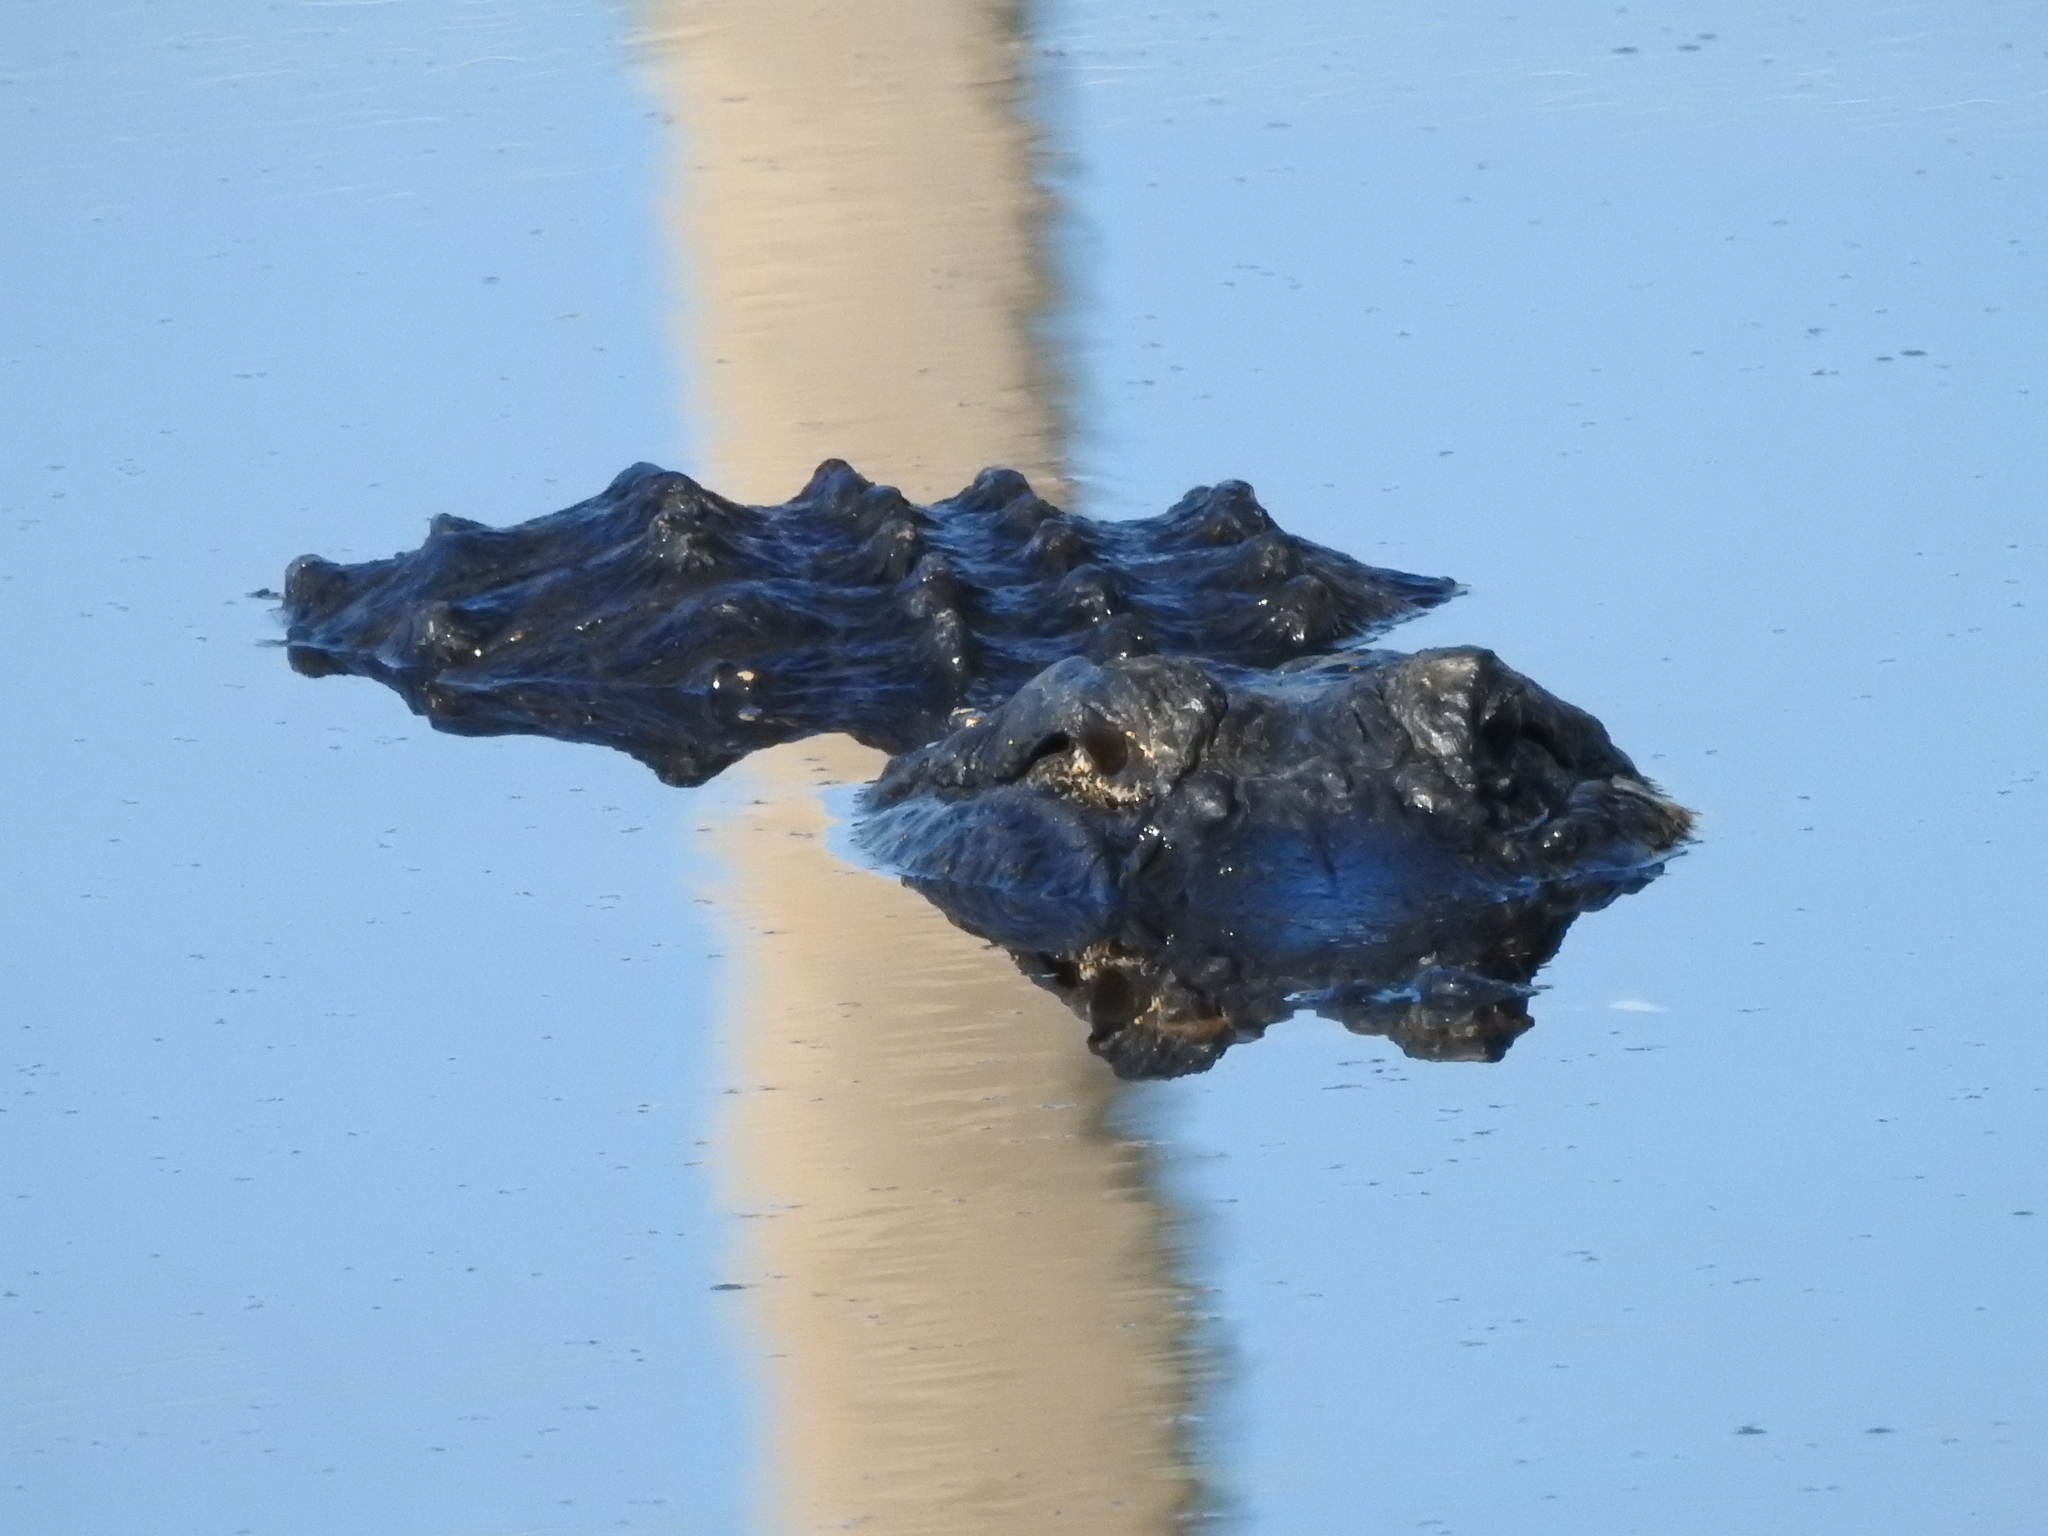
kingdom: Animalia
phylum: Chordata
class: Crocodylia
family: Alligatoridae
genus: Alligator
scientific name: Alligator mississippiensis
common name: American alligator
